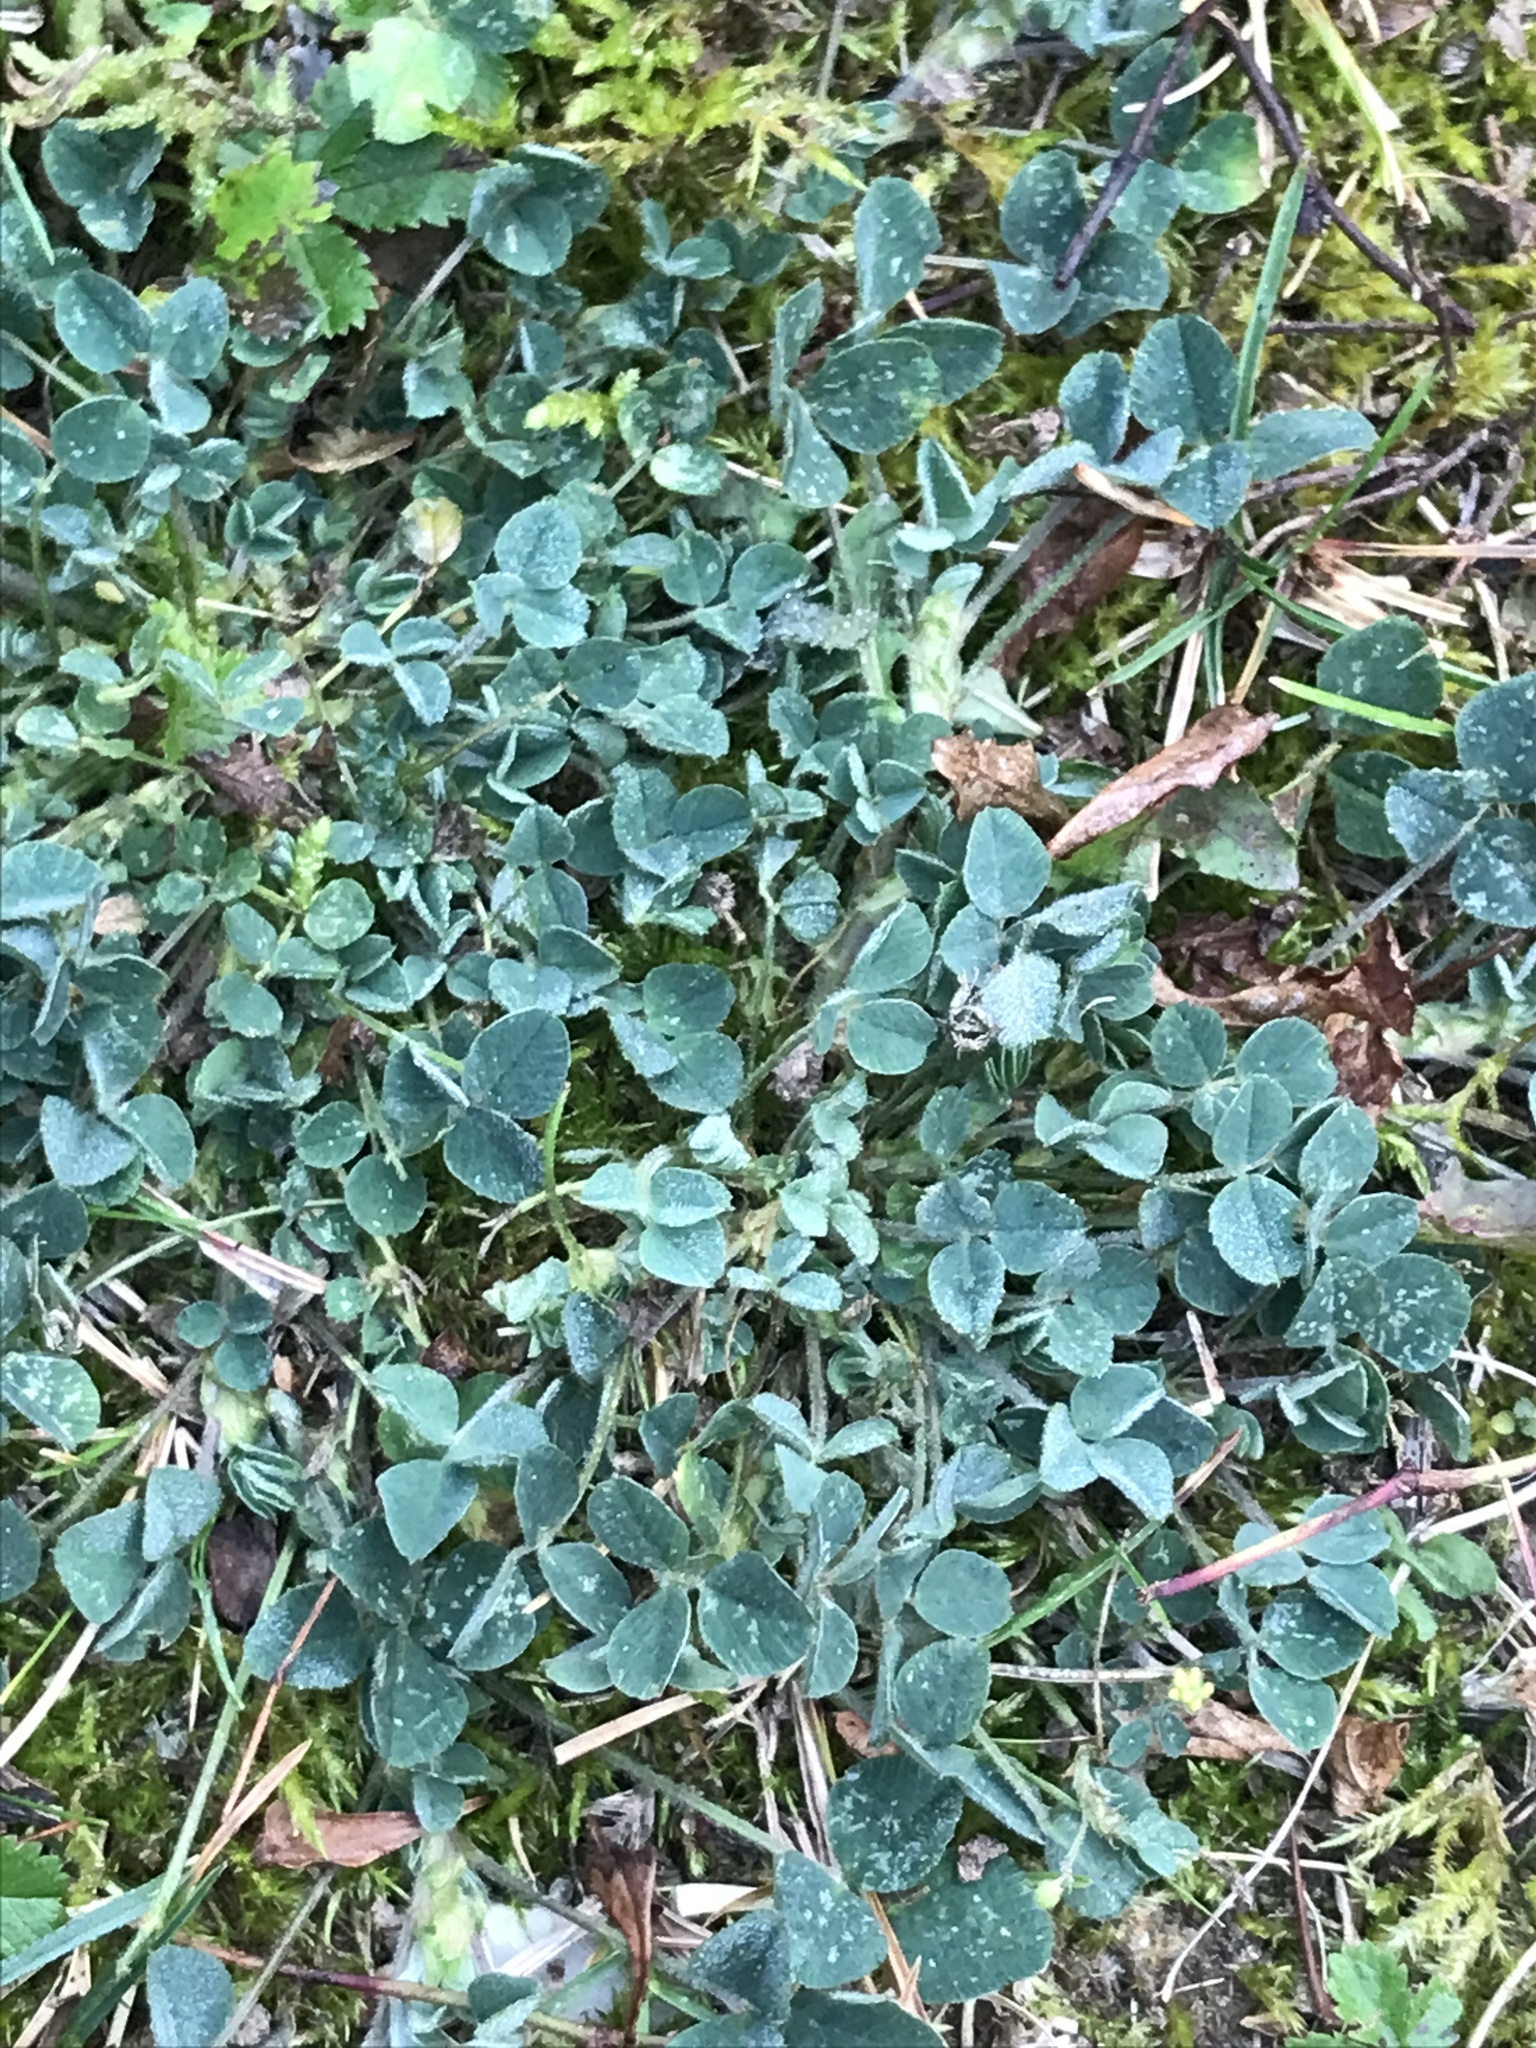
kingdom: Plantae
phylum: Tracheophyta
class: Magnoliopsida
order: Fabales
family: Fabaceae
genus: Medicago
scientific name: Medicago lupulina
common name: Black medick
